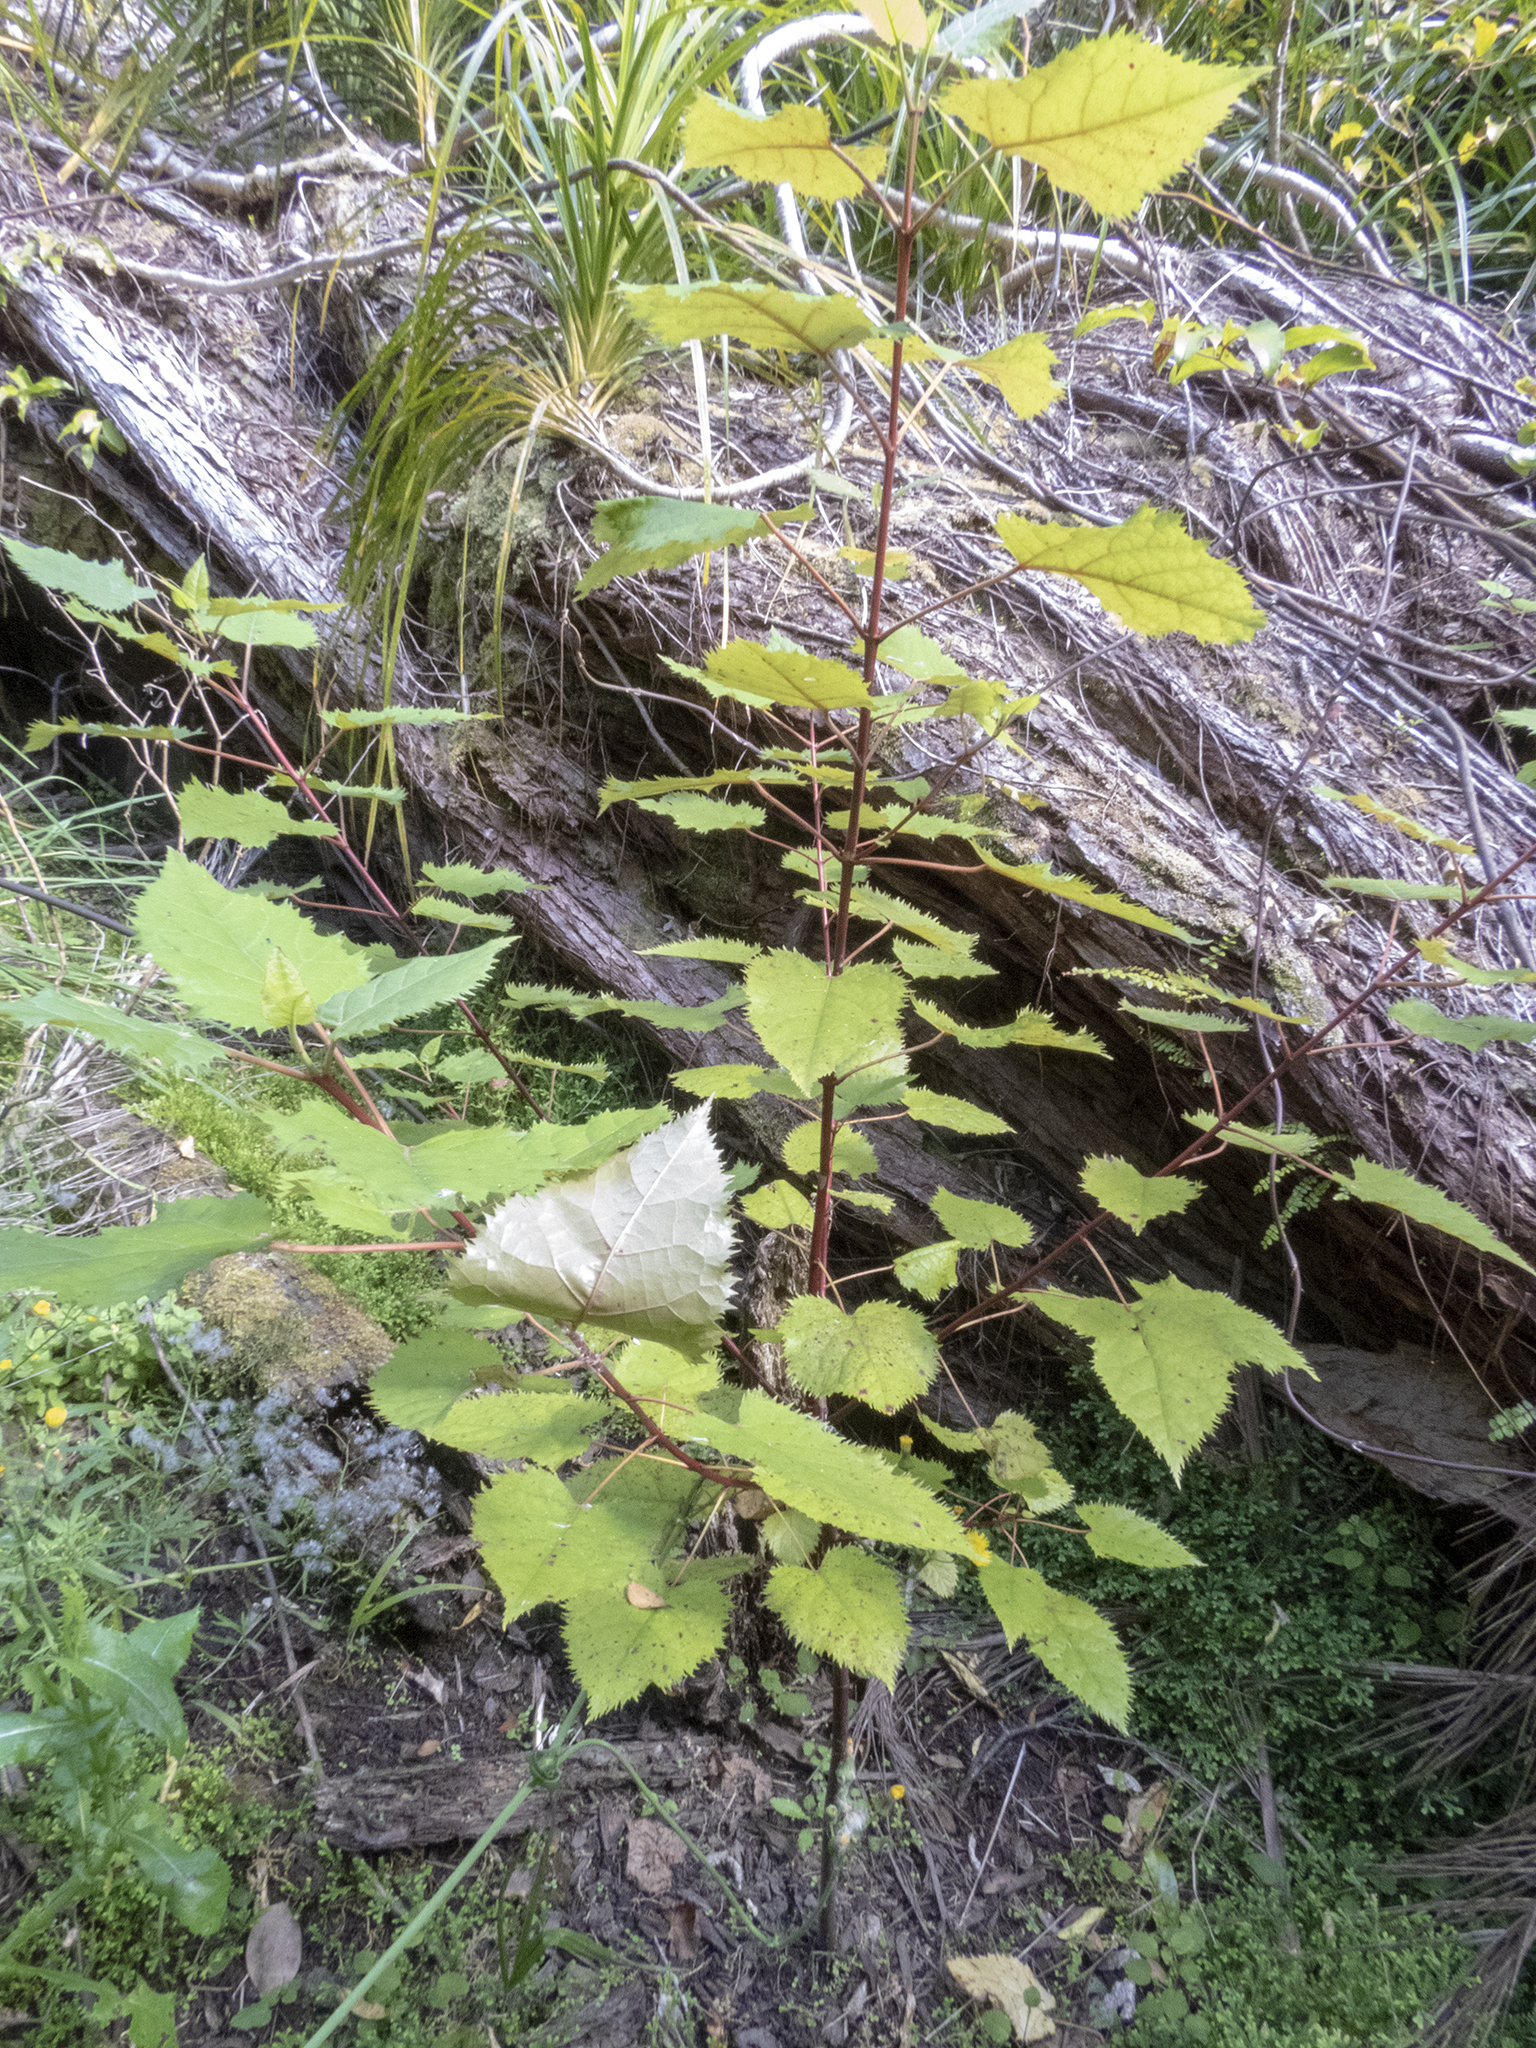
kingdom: Plantae
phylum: Tracheophyta
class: Magnoliopsida
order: Oxalidales
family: Elaeocarpaceae
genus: Aristotelia
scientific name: Aristotelia serrata
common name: New zealand wineberry
